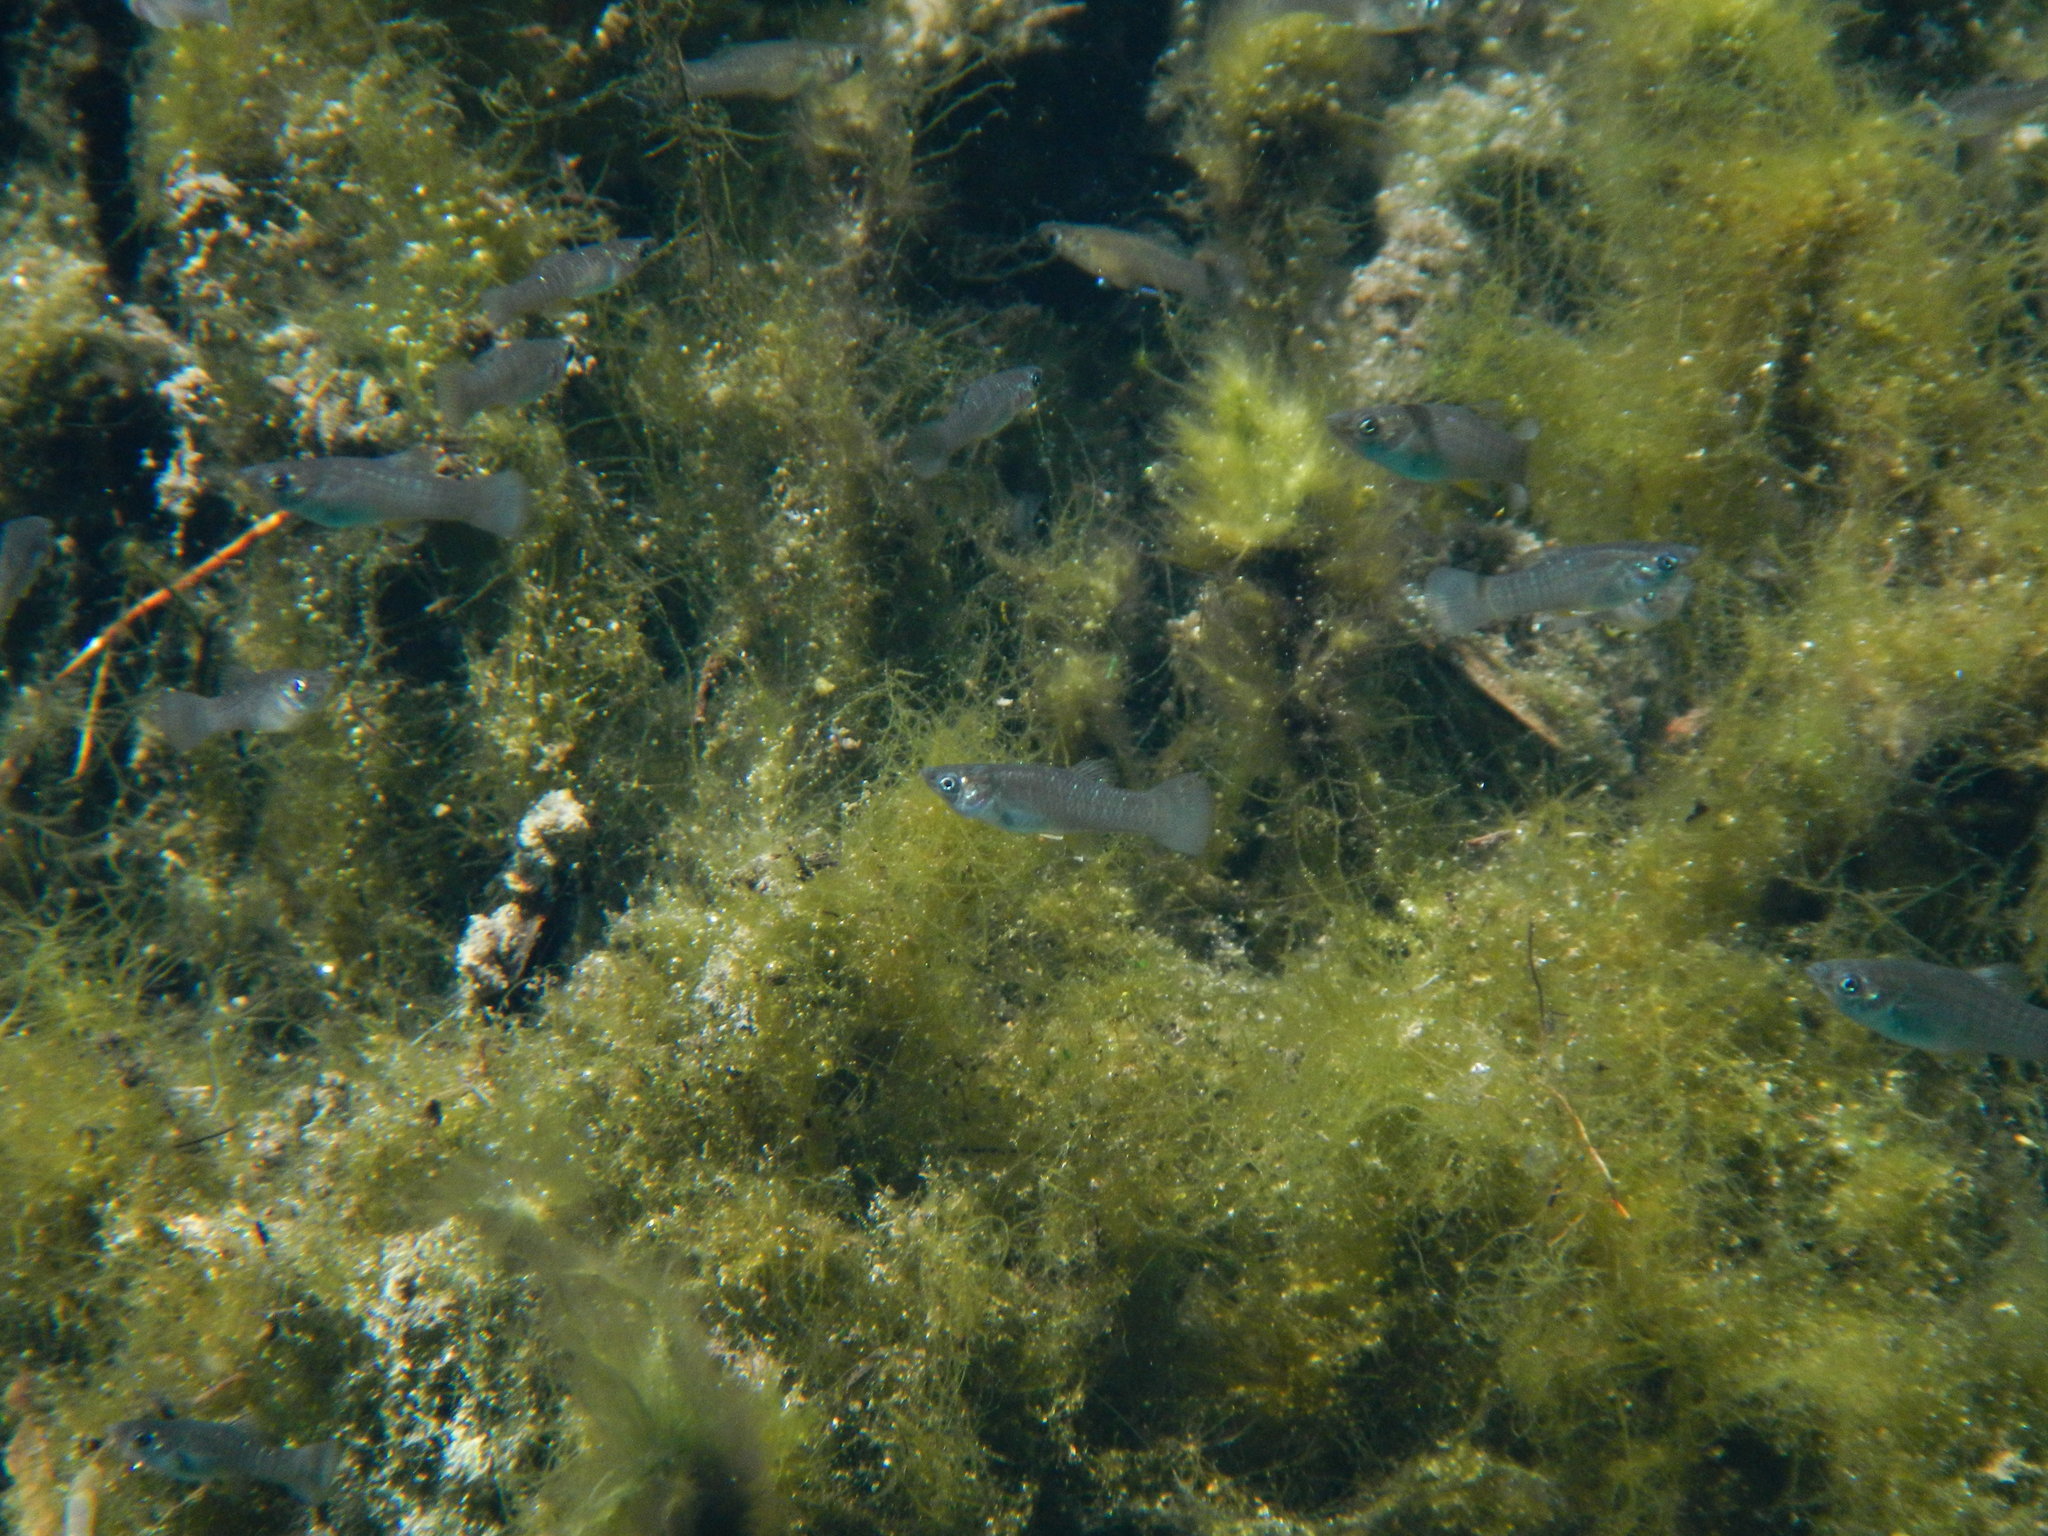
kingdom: Animalia
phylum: Chordata
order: Cyprinodontiformes
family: Poeciliidae
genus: Poecilia
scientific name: Poecilia orri
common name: Mangrove molly
